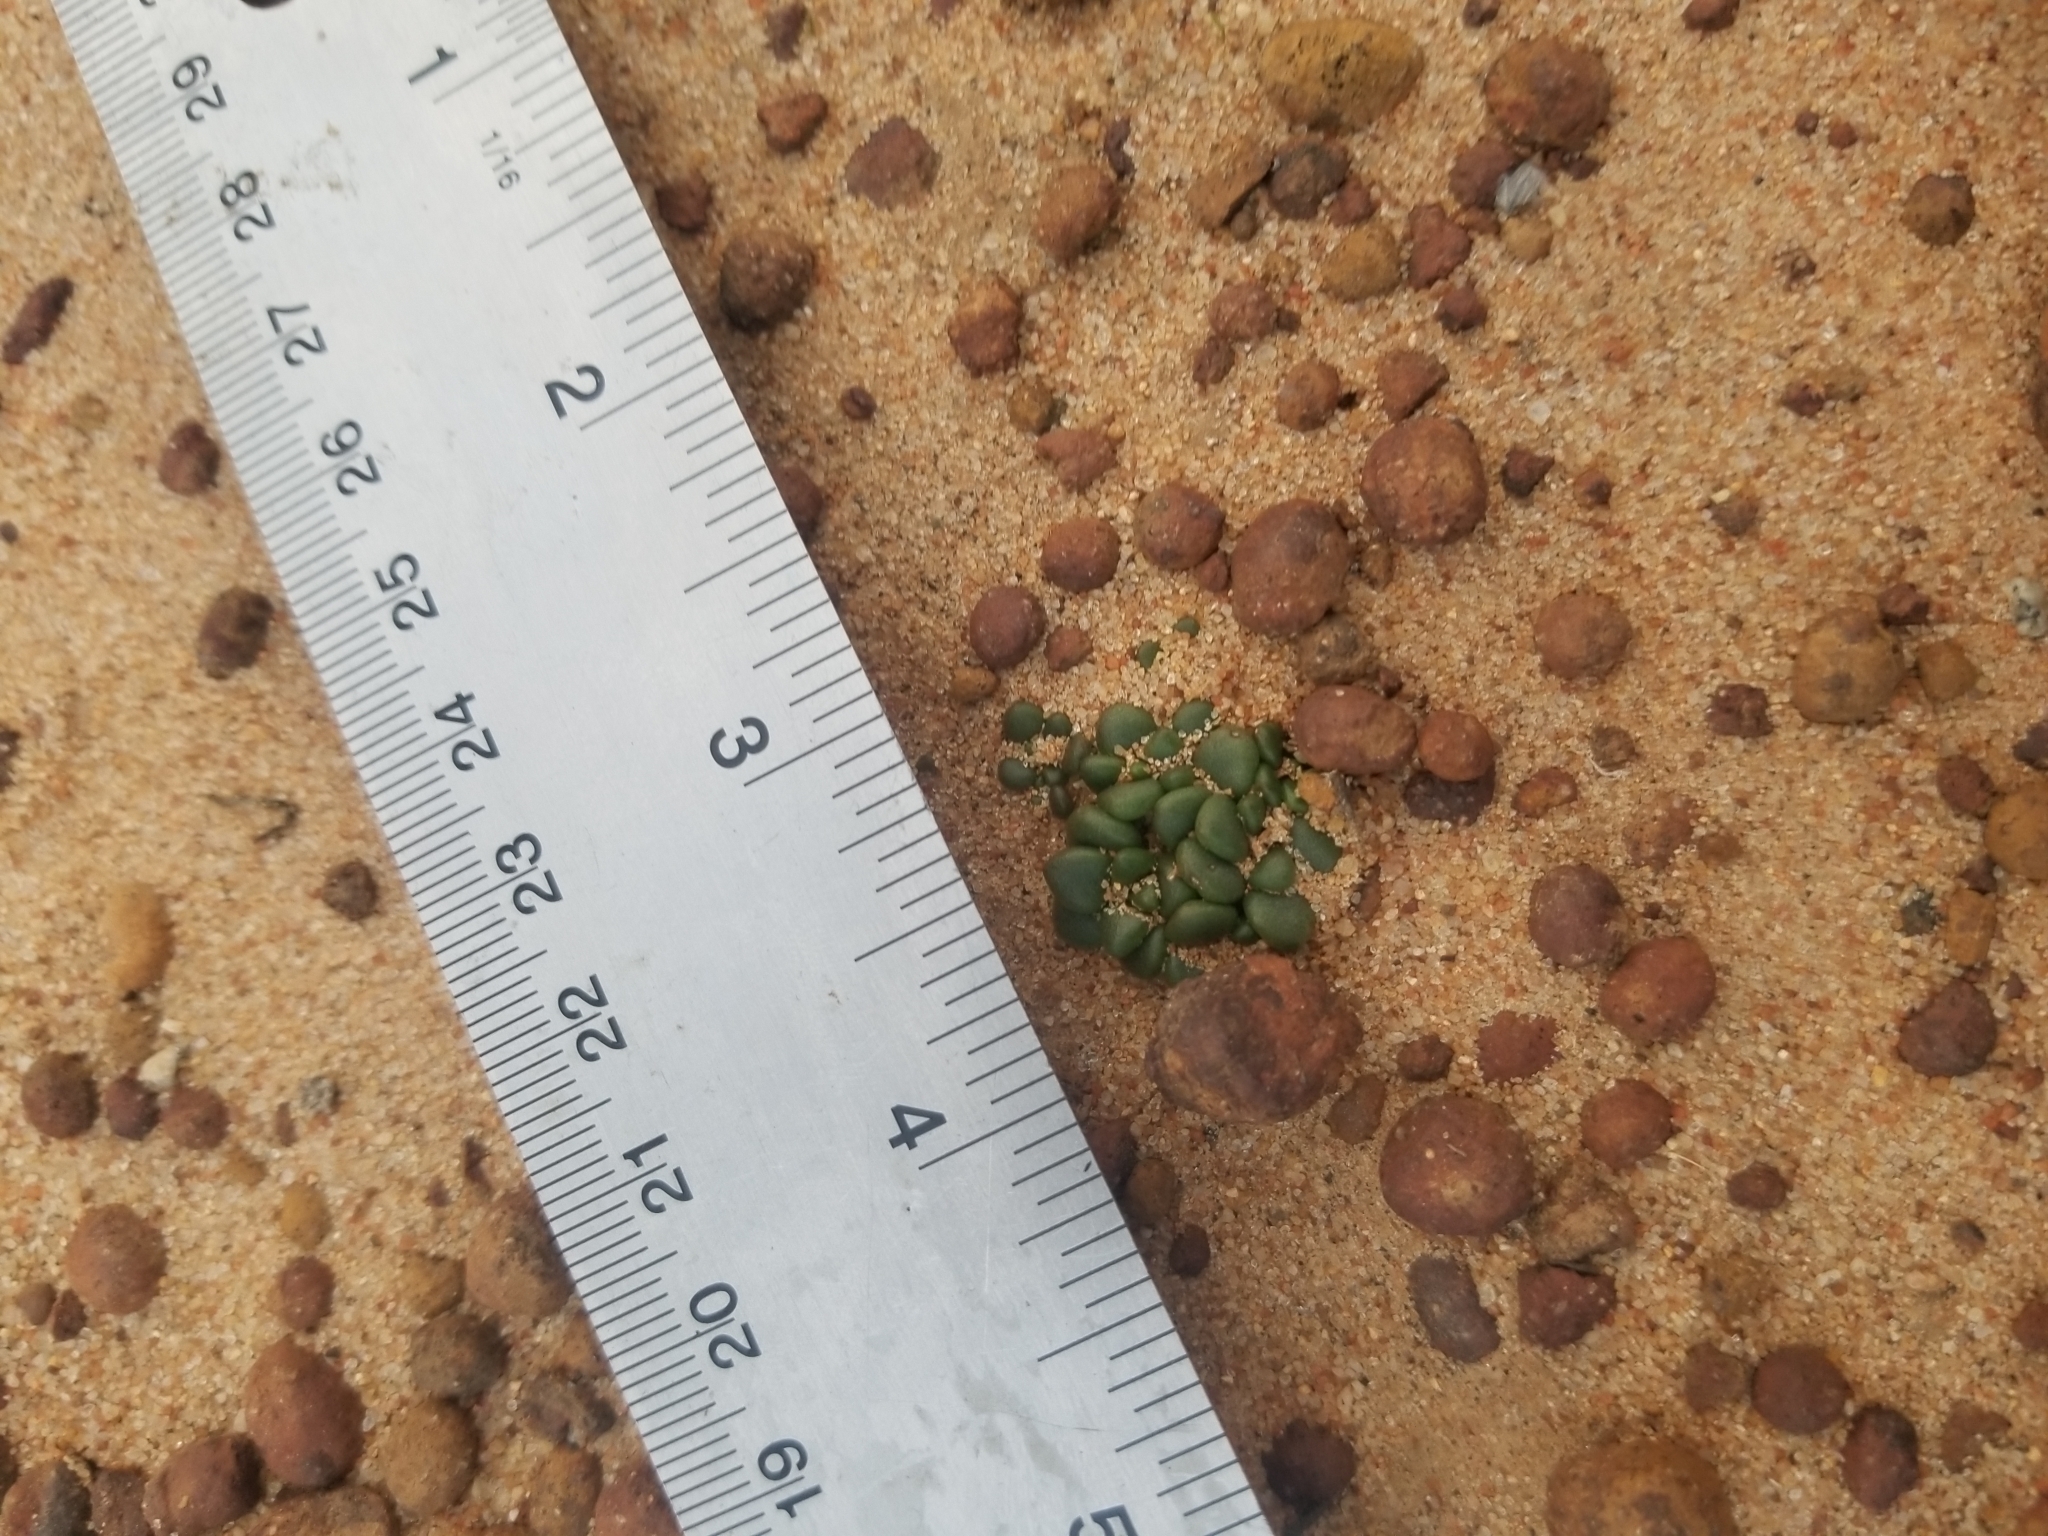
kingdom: Plantae
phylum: Tracheophyta
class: Magnoliopsida
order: Saxifragales
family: Crassulaceae
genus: Dudleya
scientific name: Dudleya blochmaniae
